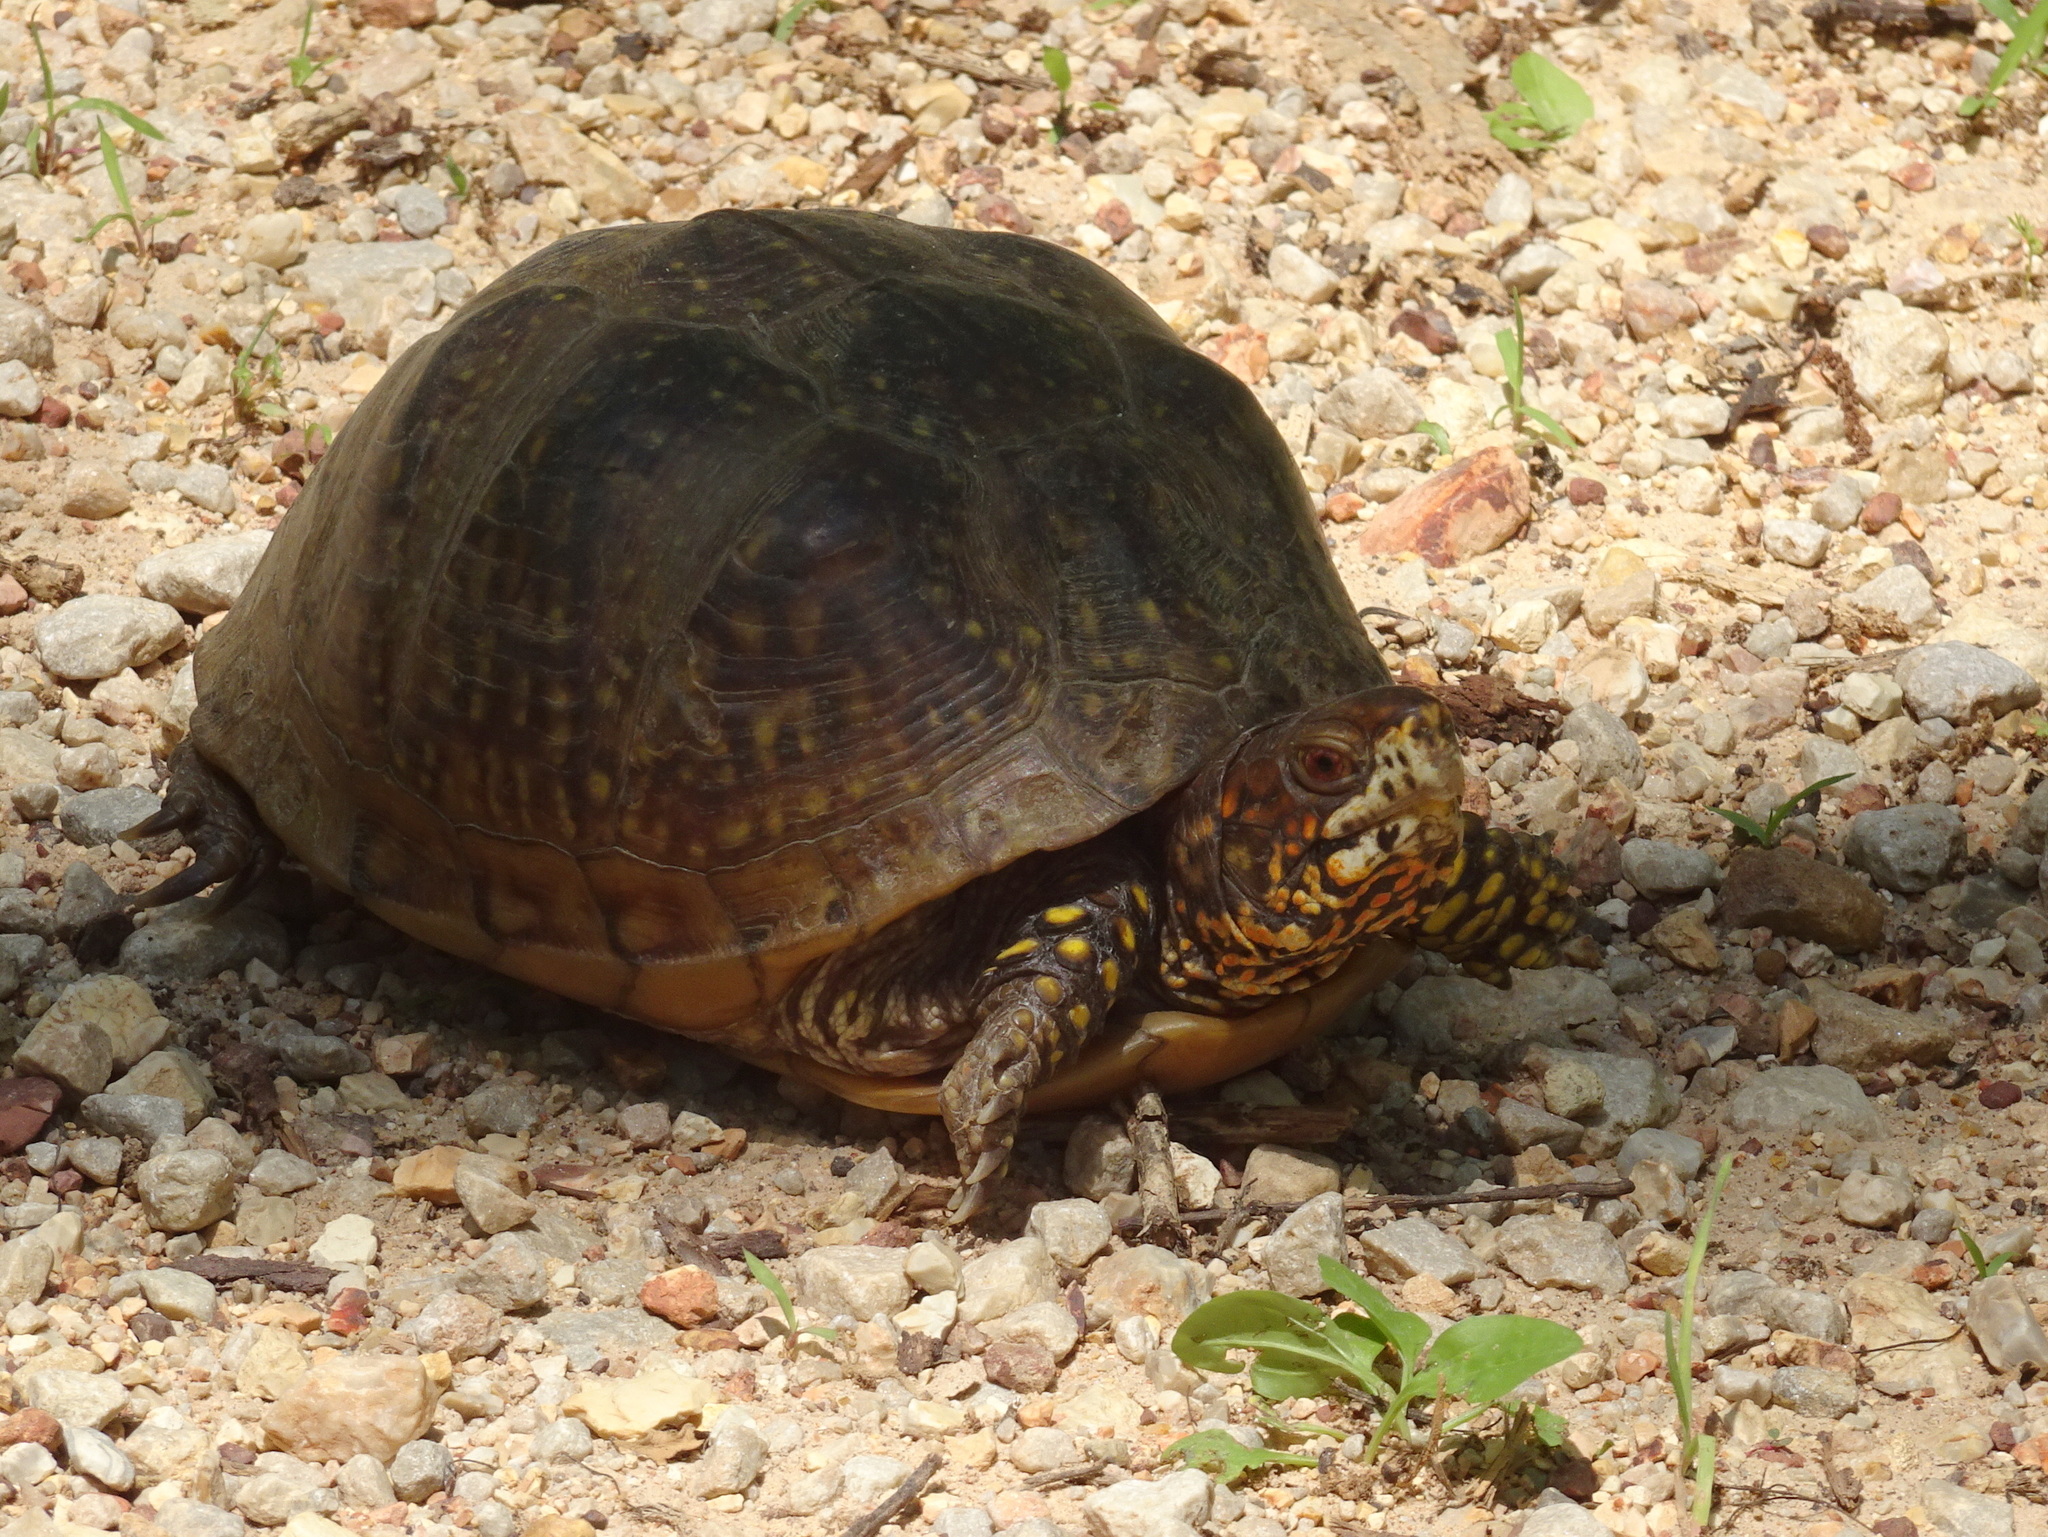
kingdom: Animalia
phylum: Chordata
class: Testudines
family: Emydidae
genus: Terrapene
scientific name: Terrapene carolina
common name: Common box turtle
